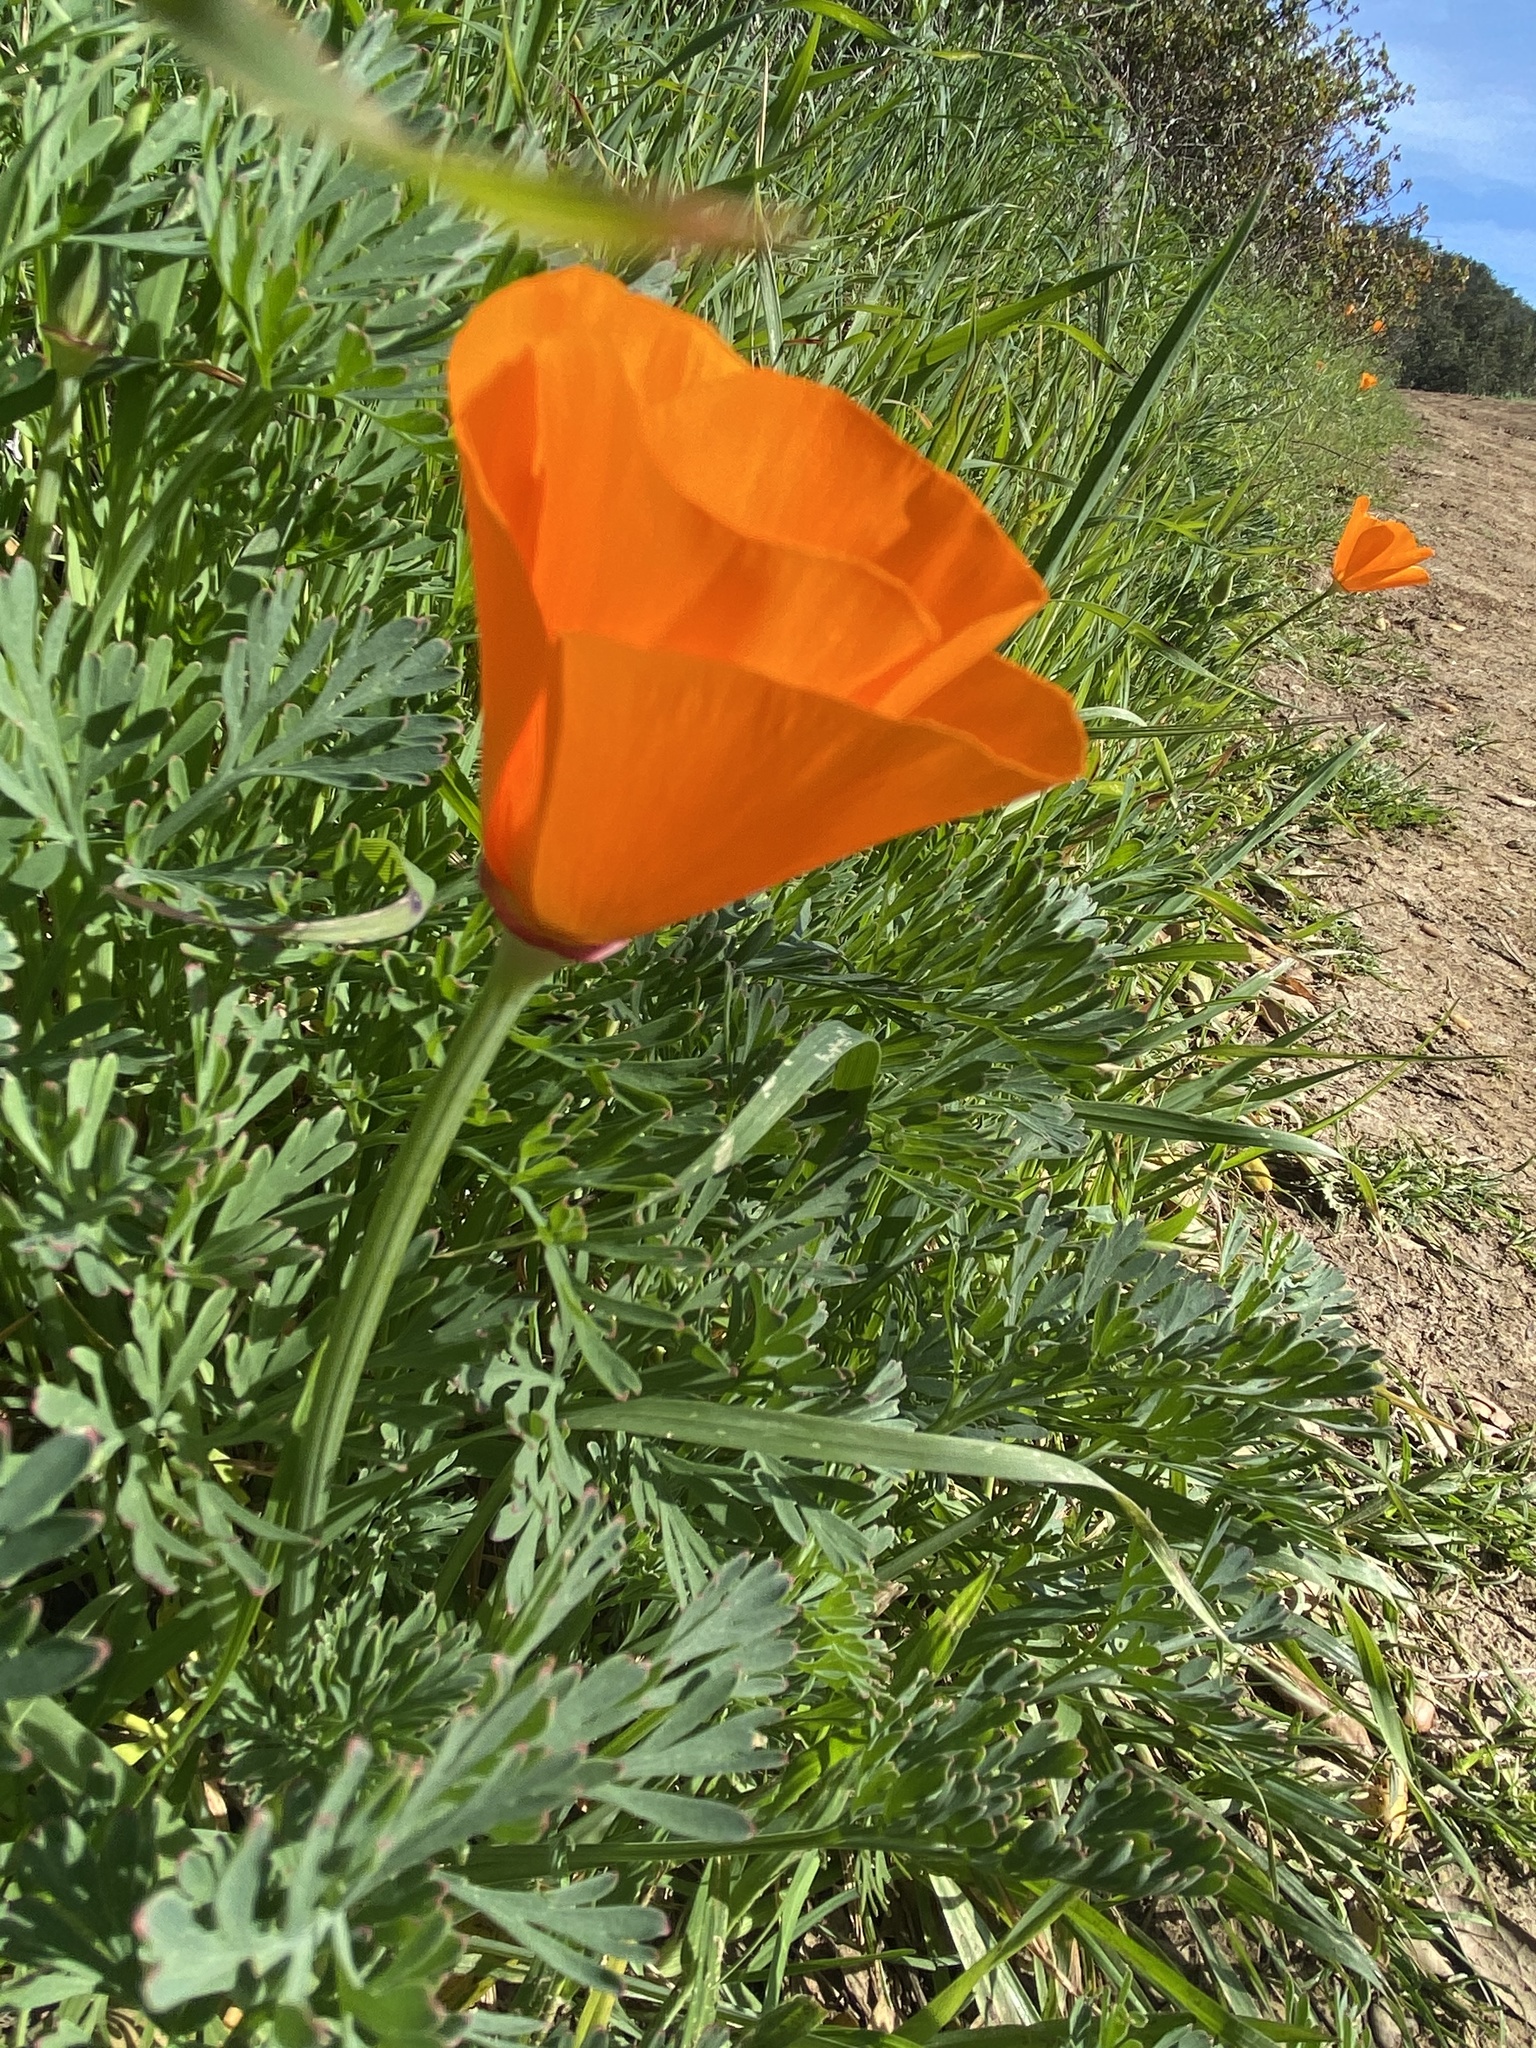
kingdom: Plantae
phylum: Tracheophyta
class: Magnoliopsida
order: Ranunculales
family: Papaveraceae
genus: Eschscholzia
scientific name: Eschscholzia californica
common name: California poppy
